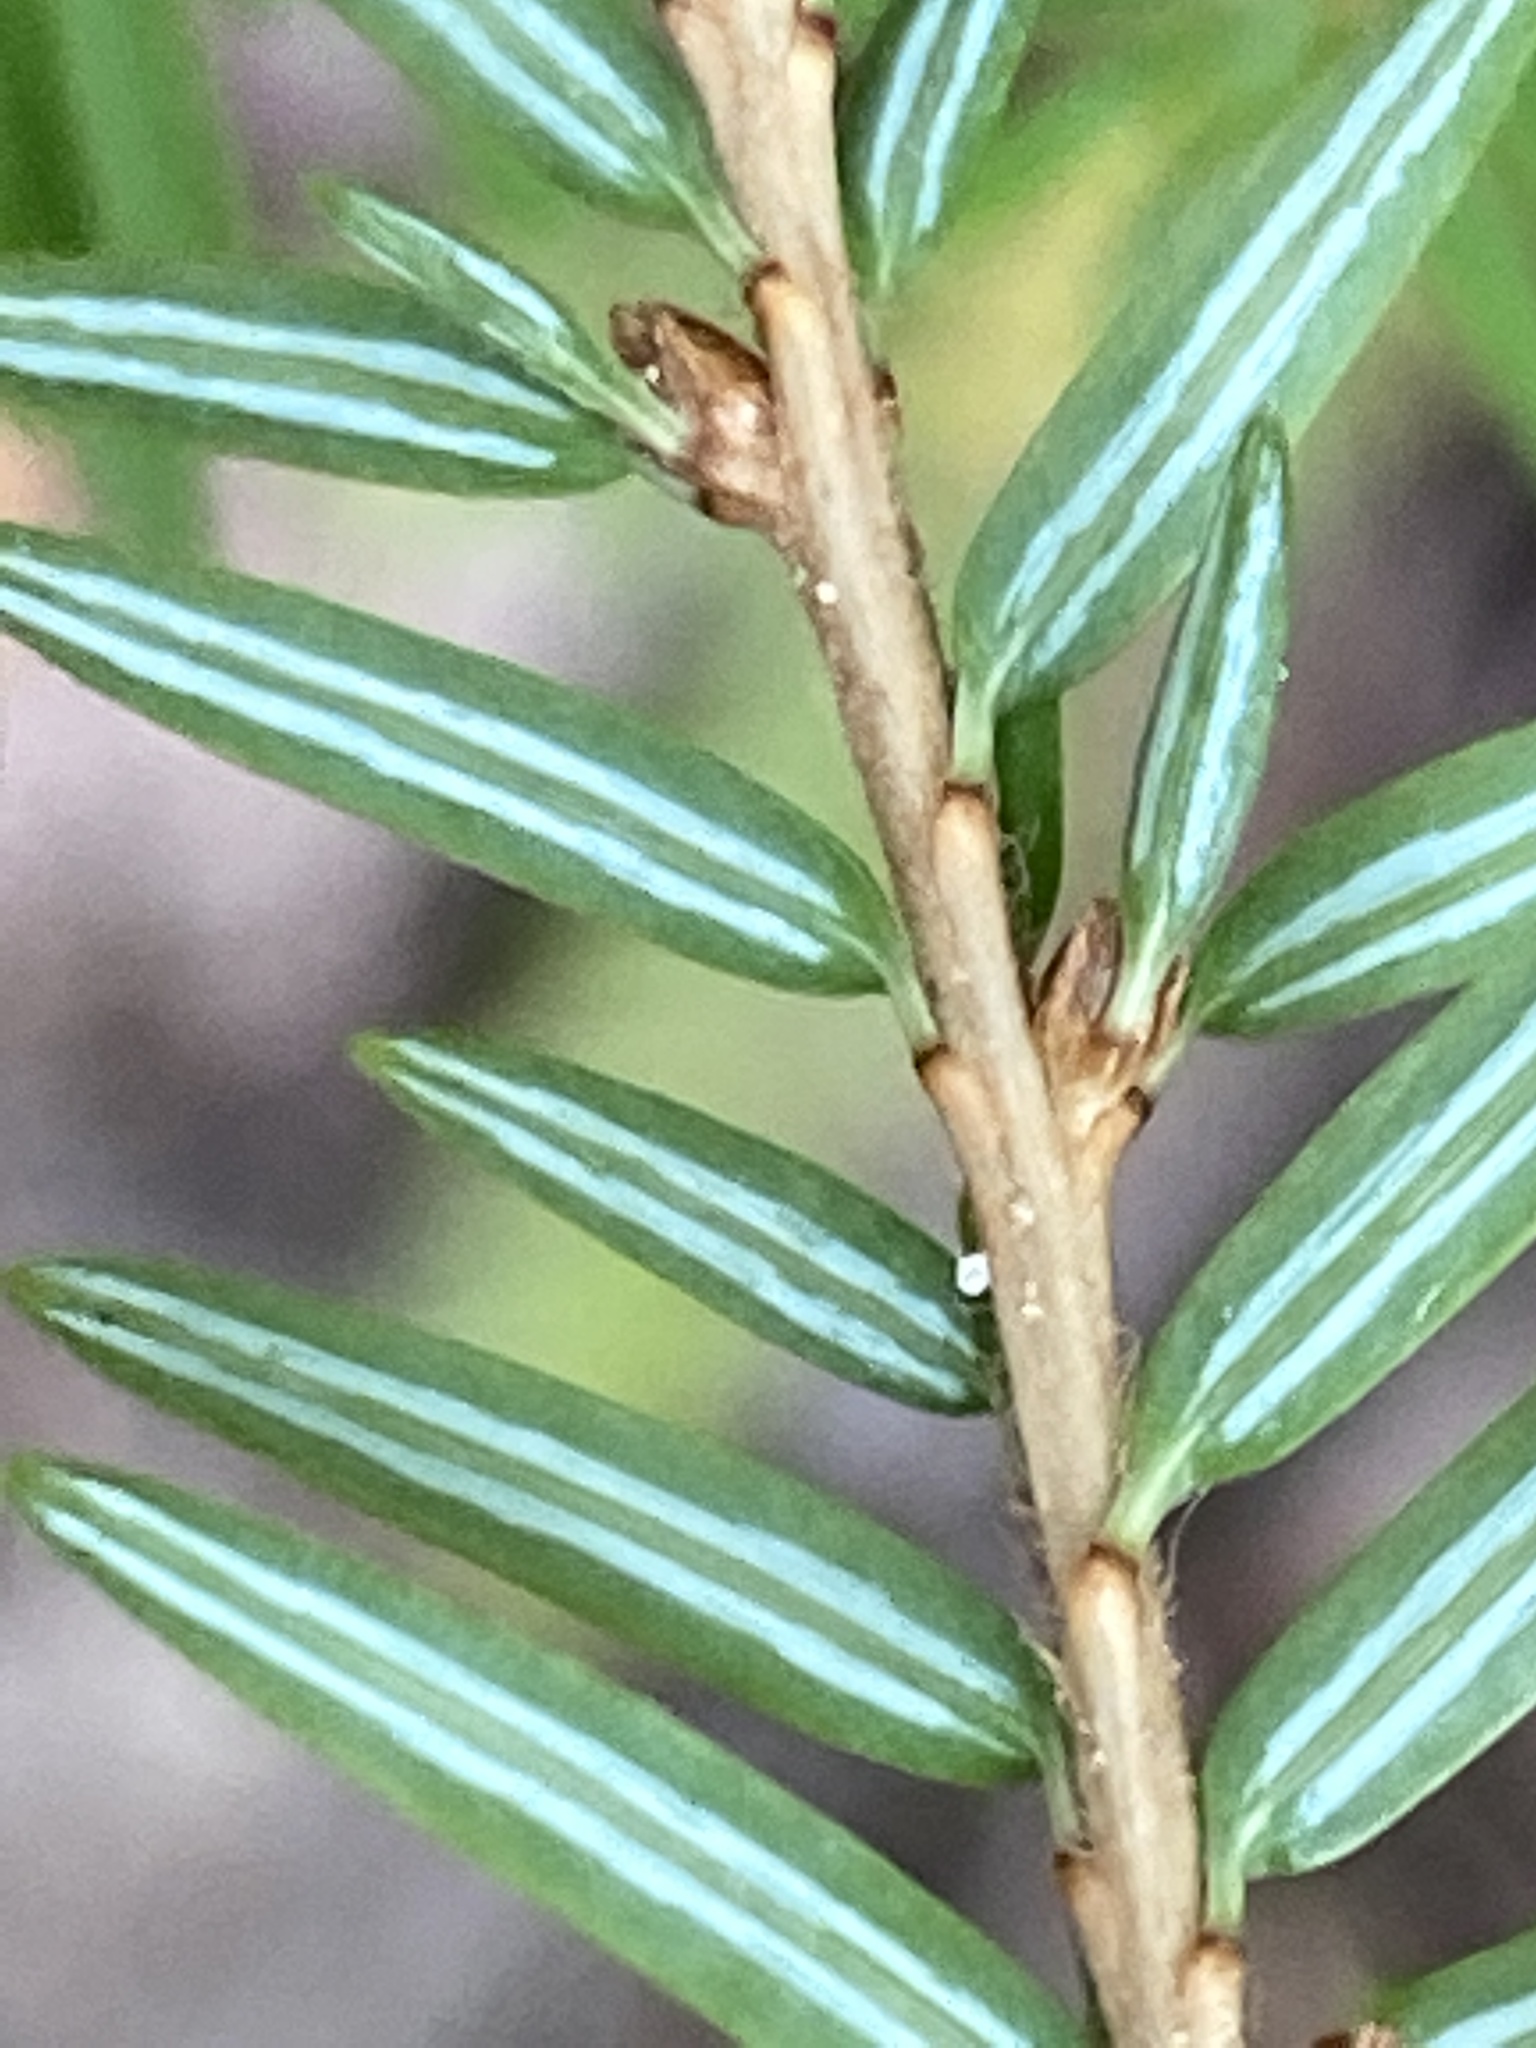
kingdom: Plantae
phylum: Tracheophyta
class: Pinopsida
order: Pinales
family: Pinaceae
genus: Tsuga
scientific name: Tsuga canadensis
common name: Eastern hemlock
